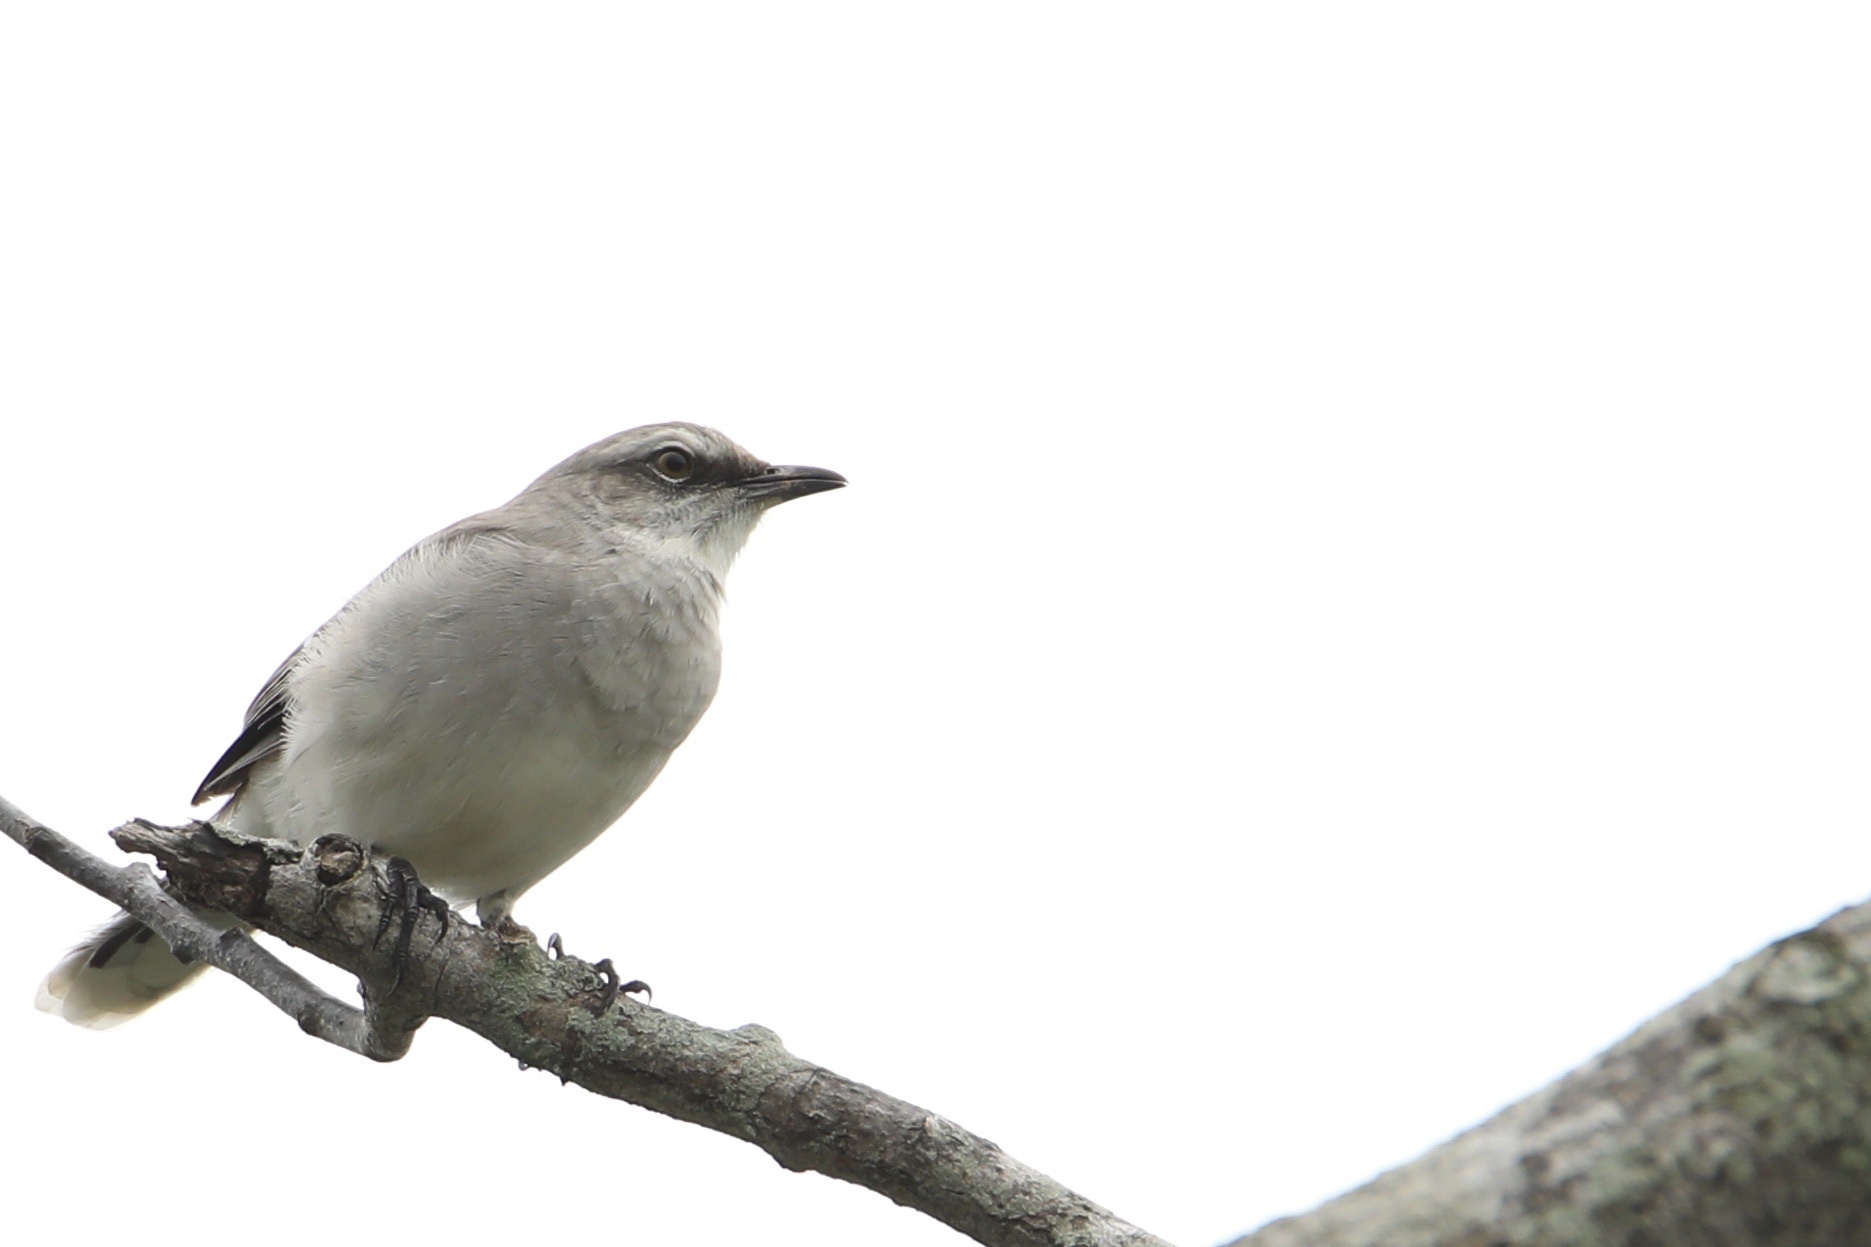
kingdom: Animalia
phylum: Chordata
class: Aves
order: Passeriformes
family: Mimidae
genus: Mimus
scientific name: Mimus gilvus
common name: Tropical mockingbird
